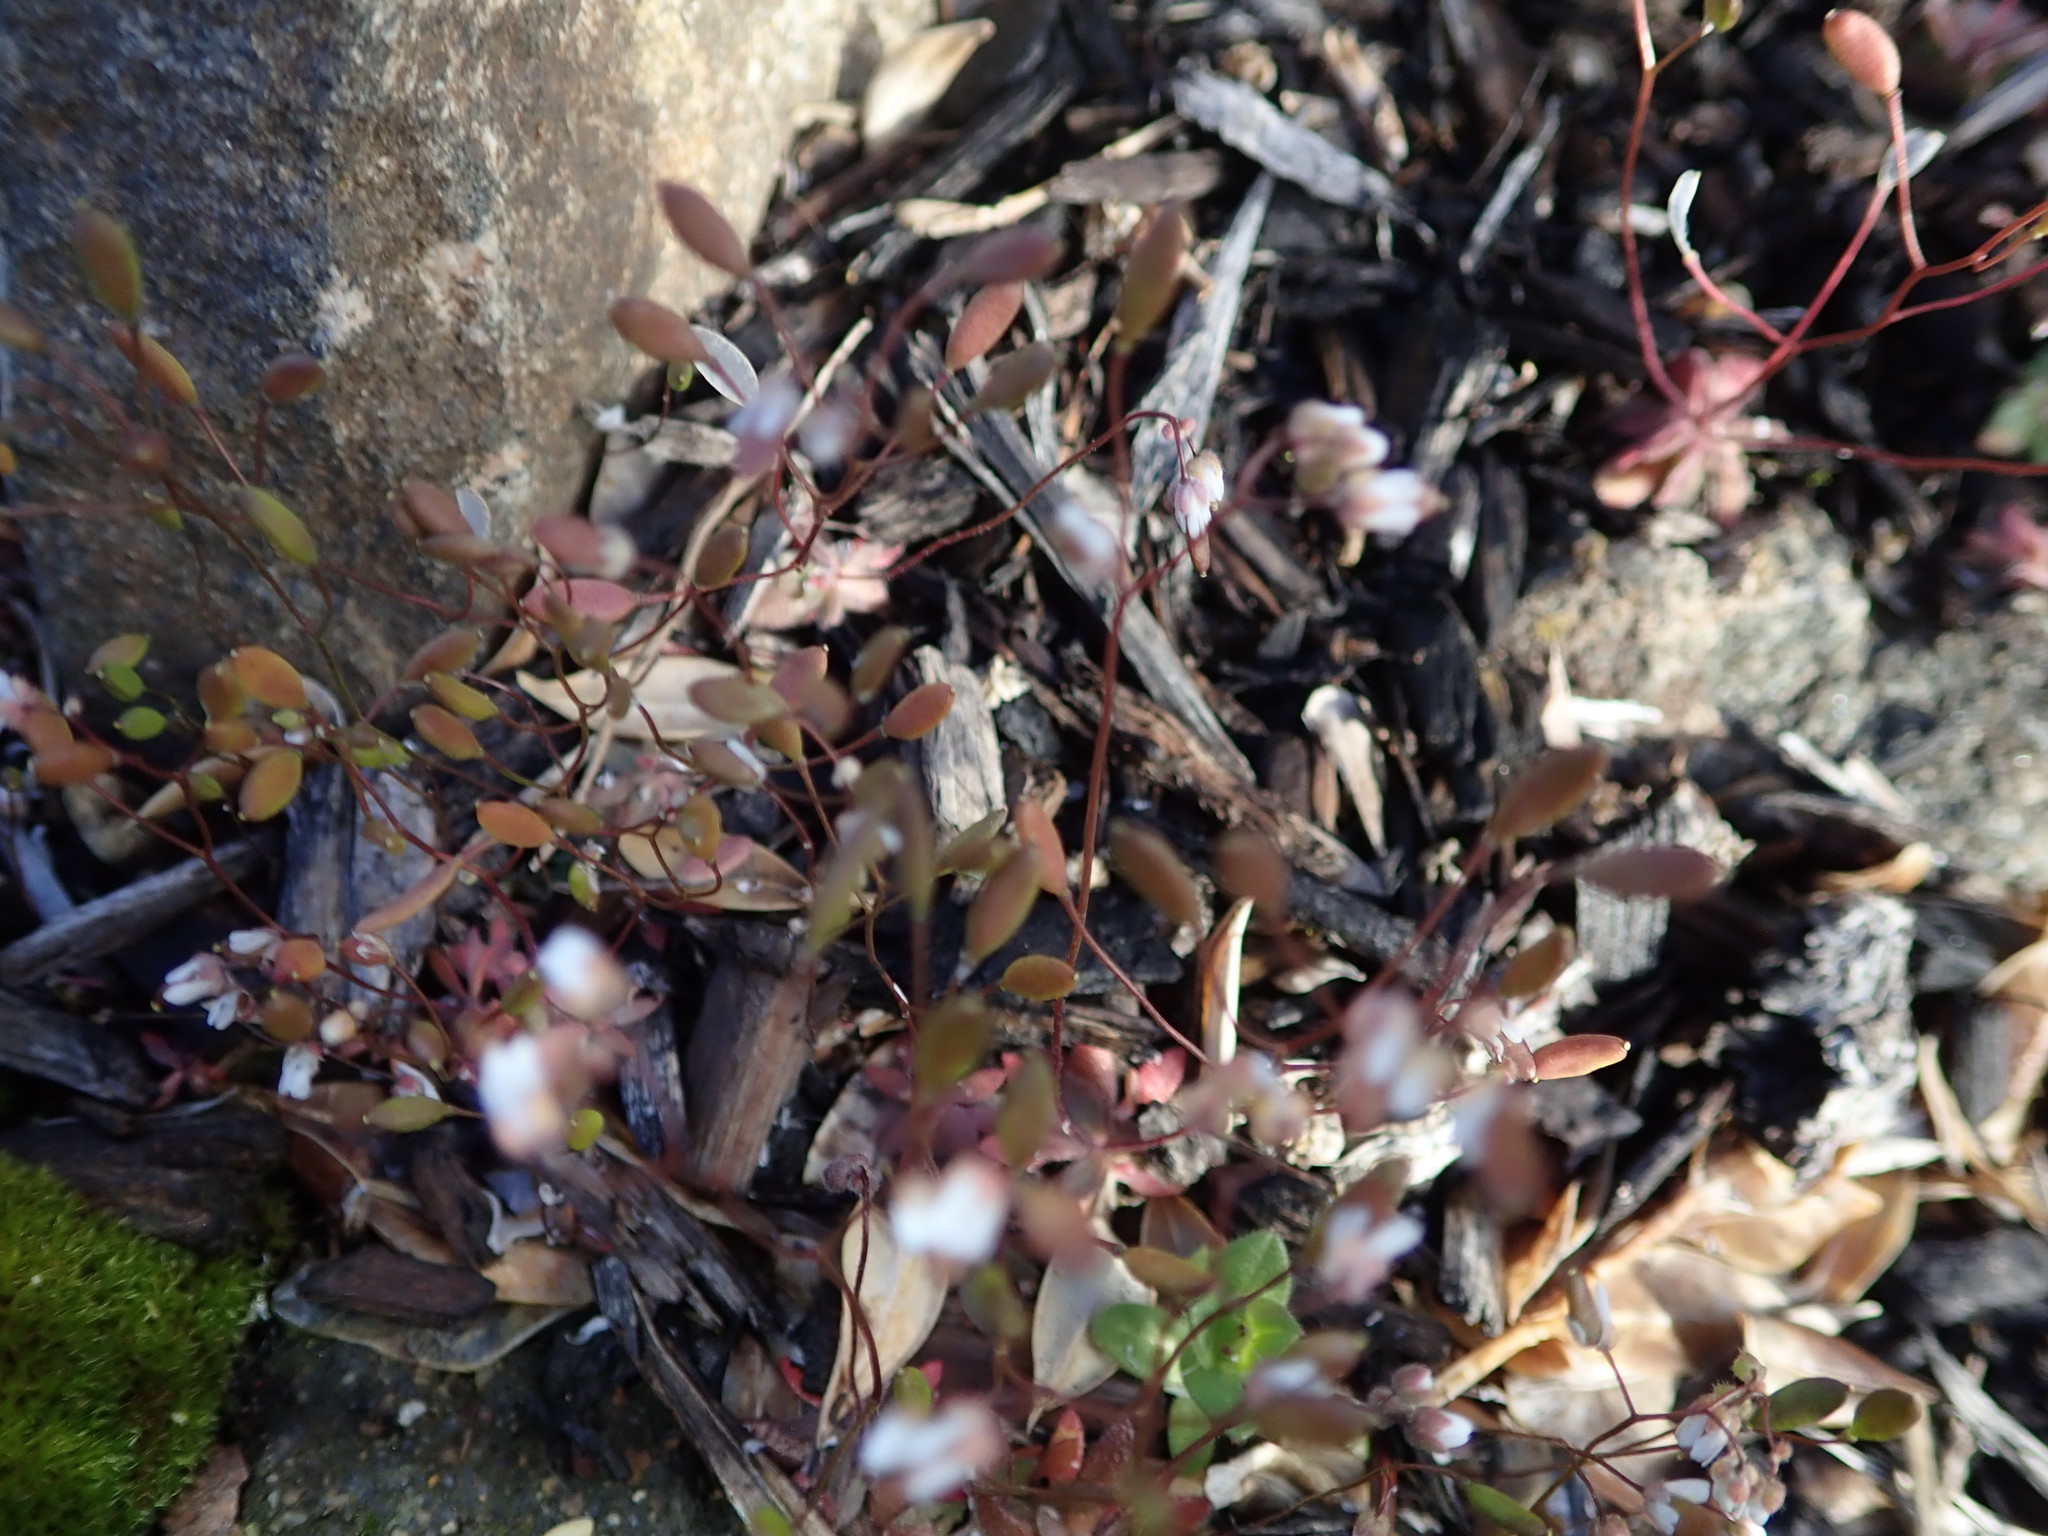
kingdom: Plantae
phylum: Tracheophyta
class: Magnoliopsida
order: Brassicales
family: Brassicaceae
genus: Draba
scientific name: Draba verna
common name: Spring draba
